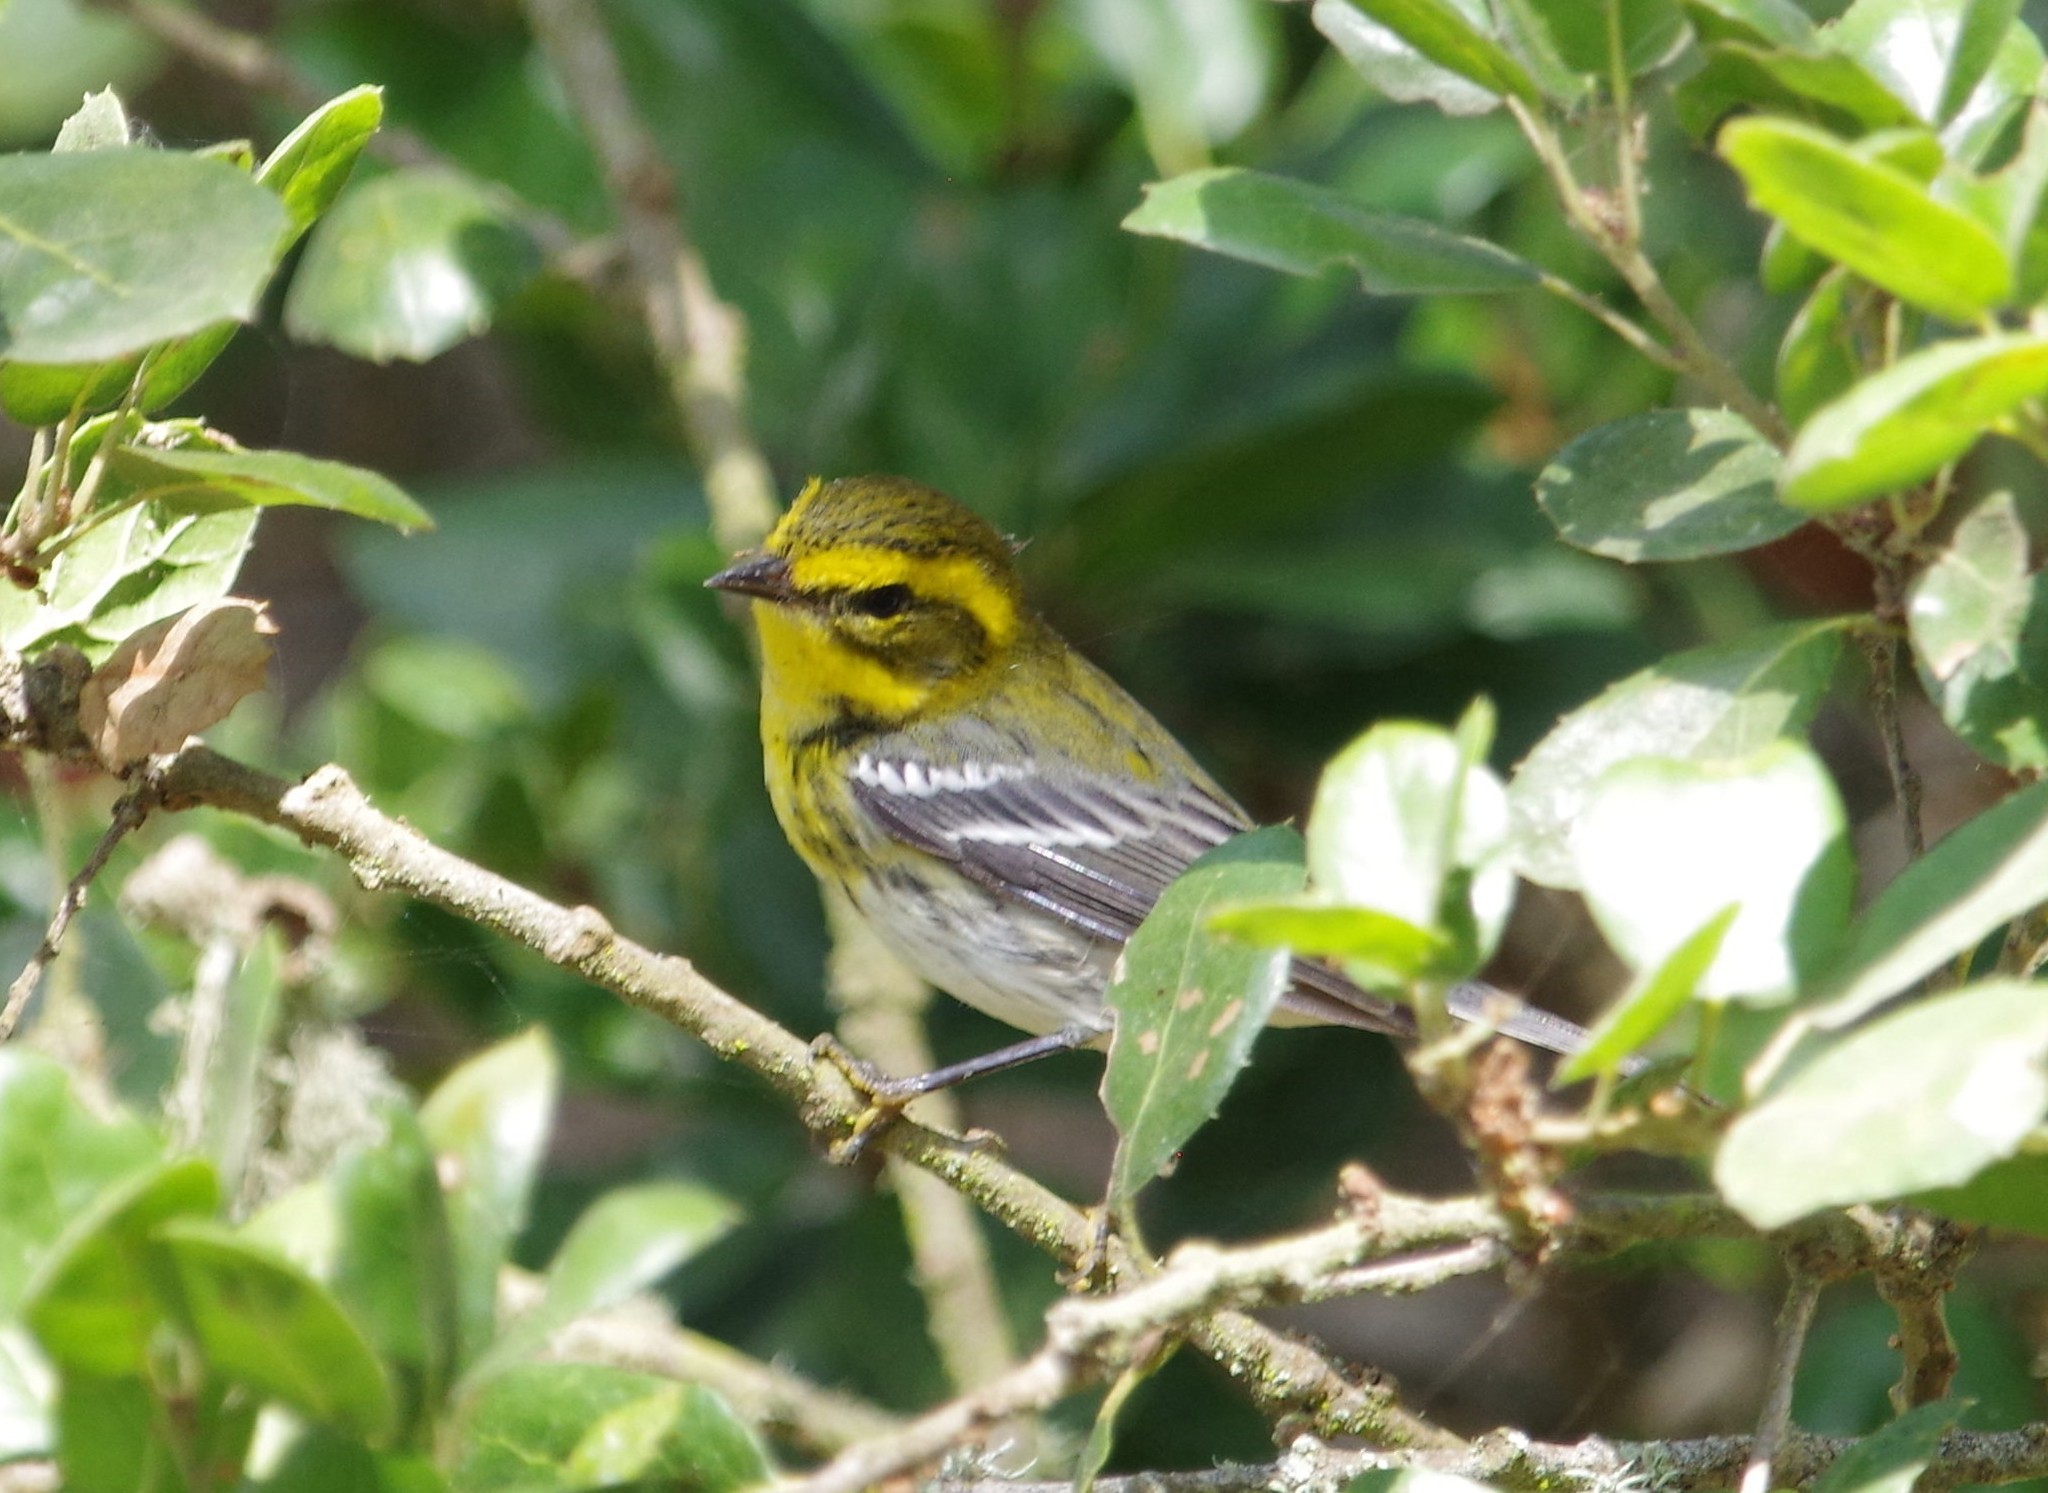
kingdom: Animalia
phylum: Chordata
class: Aves
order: Passeriformes
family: Parulidae
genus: Setophaga
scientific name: Setophaga townsendi
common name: Townsend's warbler
